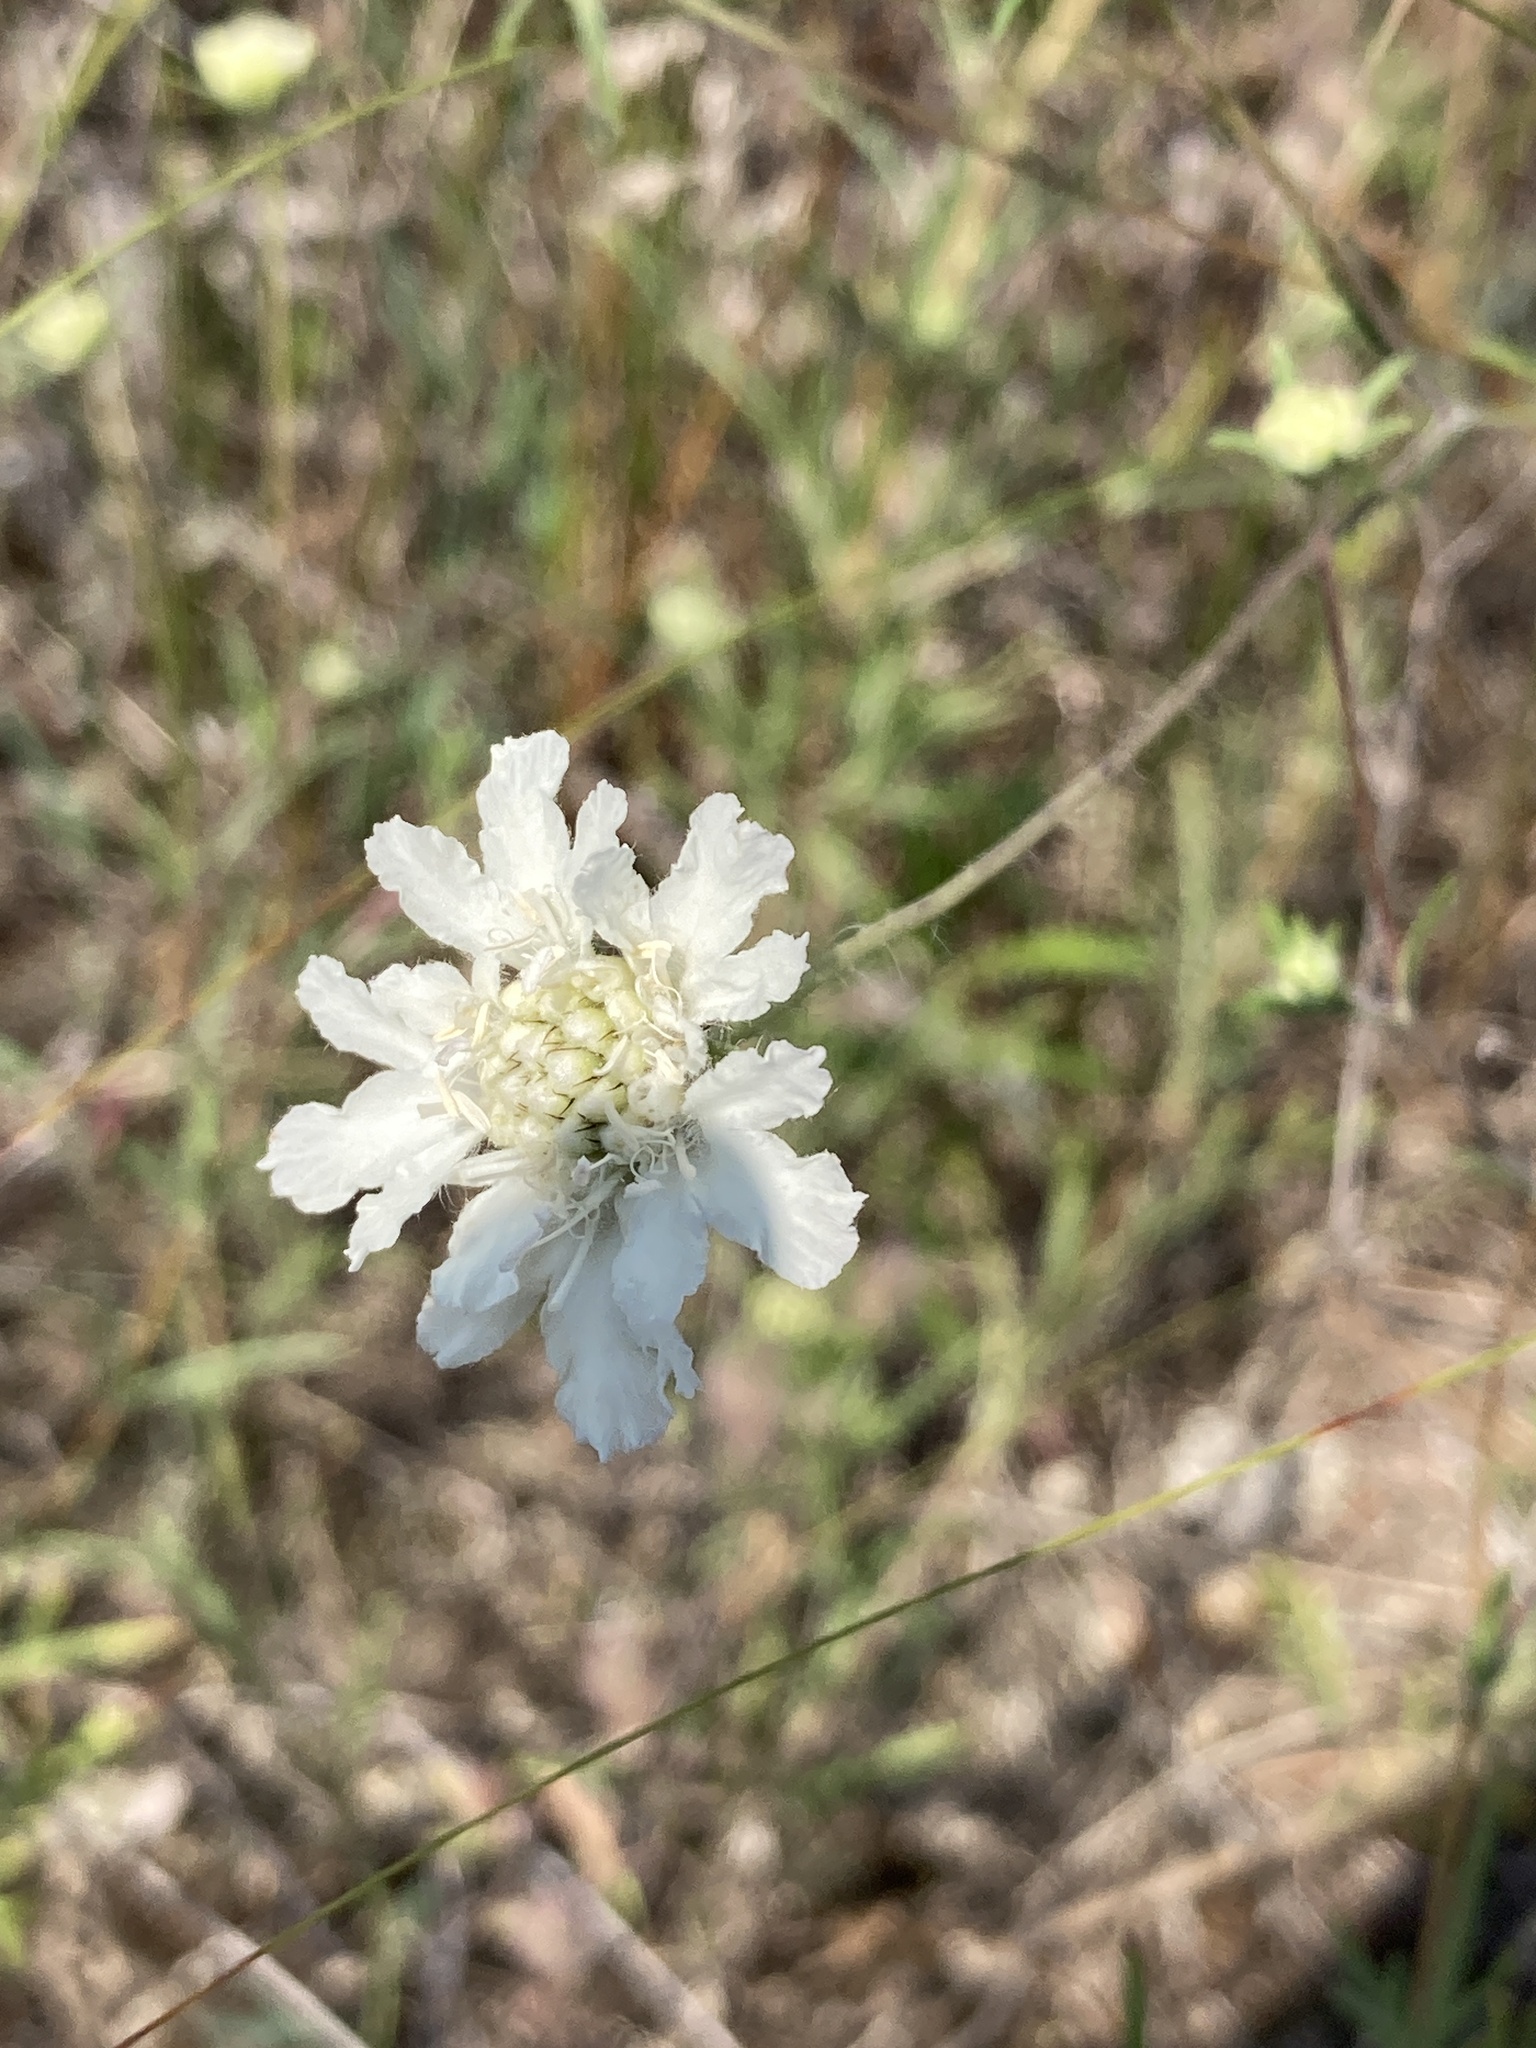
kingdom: Plantae
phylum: Tracheophyta
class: Magnoliopsida
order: Dipsacales
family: Caprifoliaceae
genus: Lomelosia
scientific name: Lomelosia argentea
